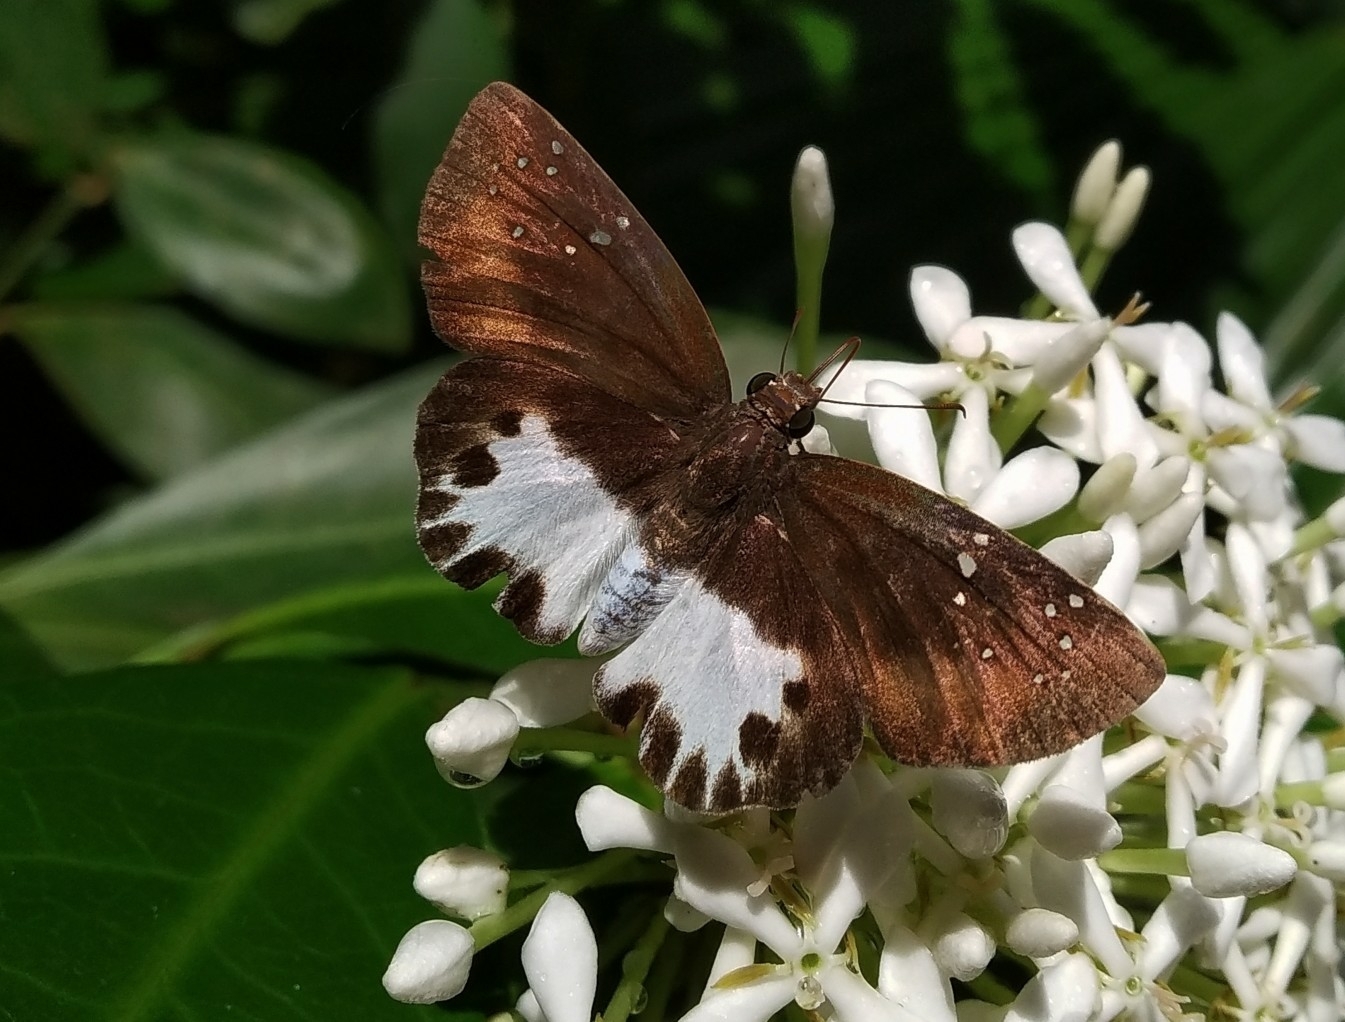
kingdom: Animalia
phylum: Arthropoda
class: Insecta
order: Lepidoptera
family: Hesperiidae
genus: Tagiades
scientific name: Tagiades litigiosa
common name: Water snow flat
